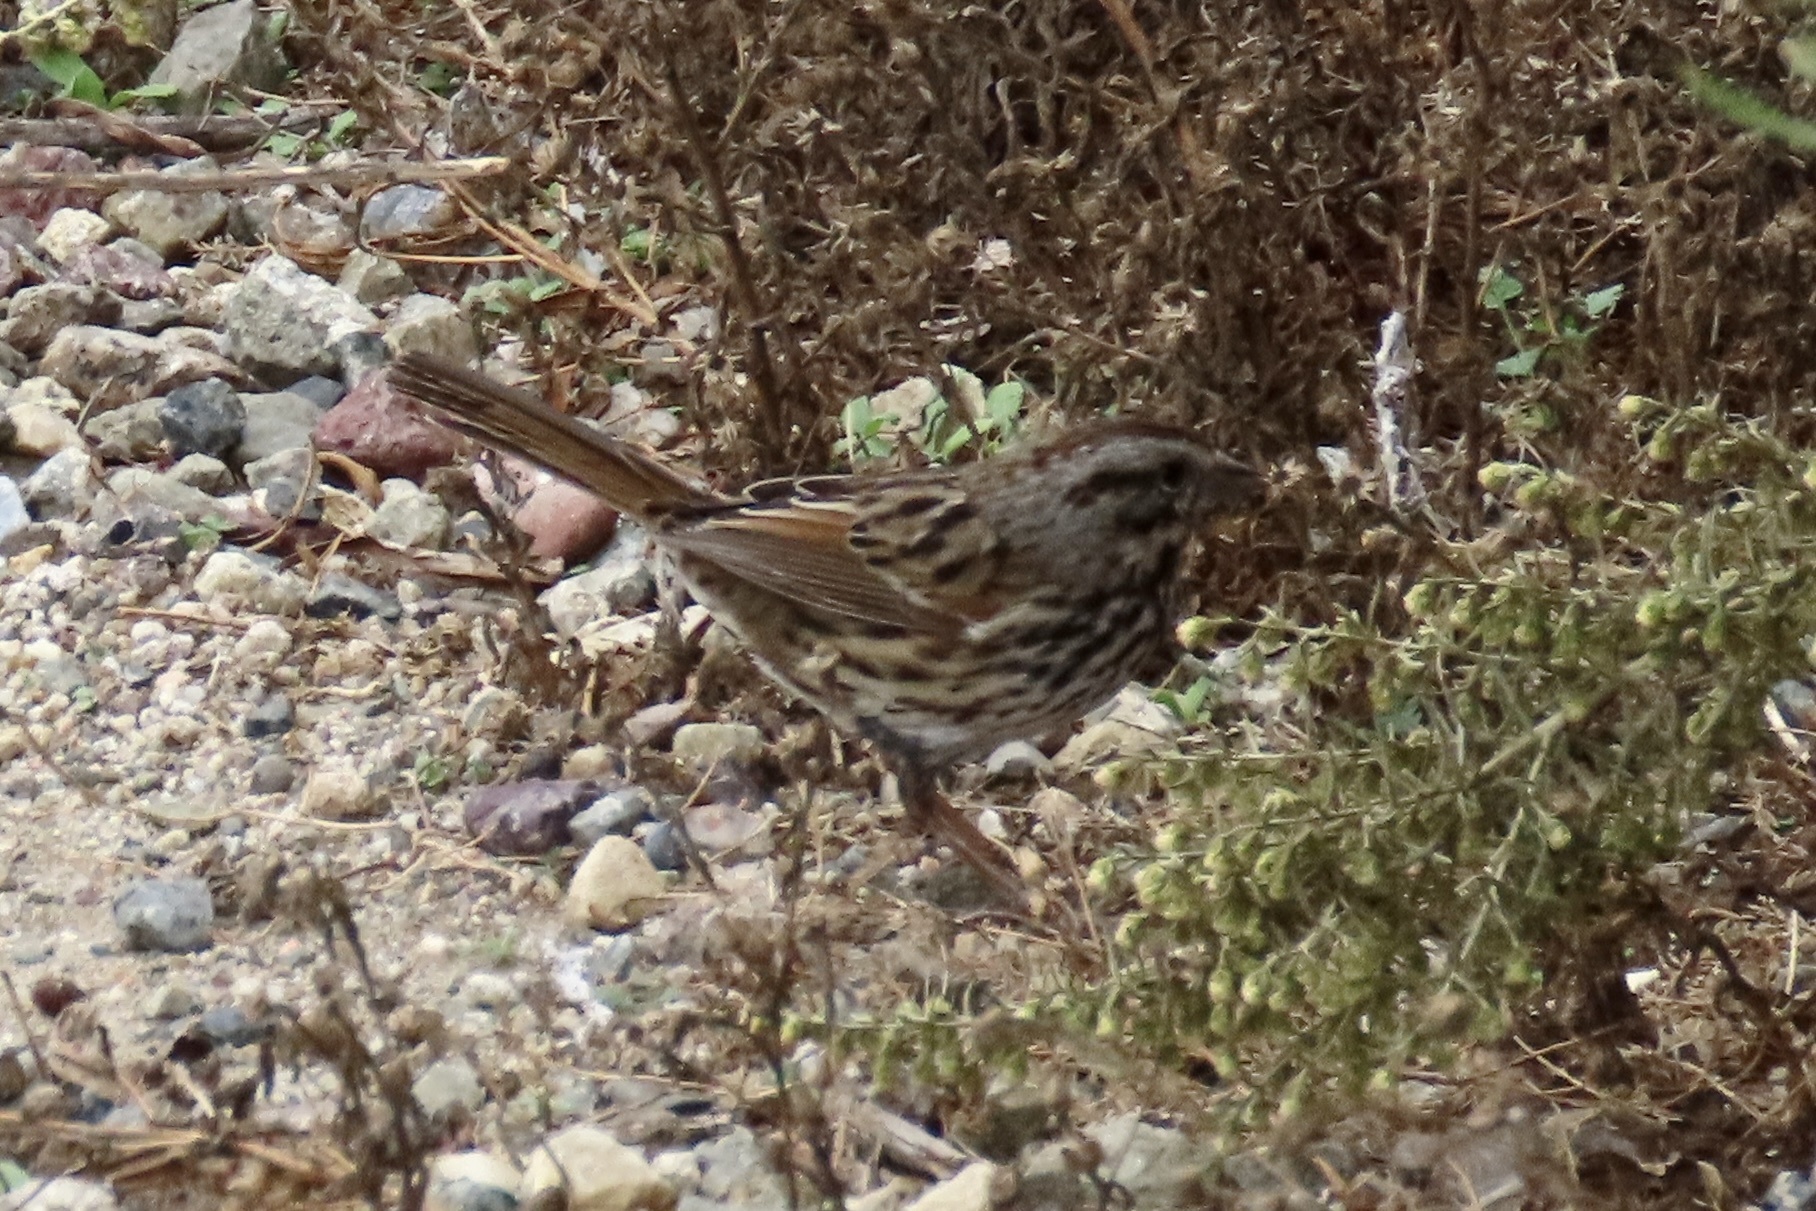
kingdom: Animalia
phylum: Chordata
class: Aves
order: Passeriformes
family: Passerellidae
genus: Melospiza
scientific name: Melospiza melodia
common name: Song sparrow
